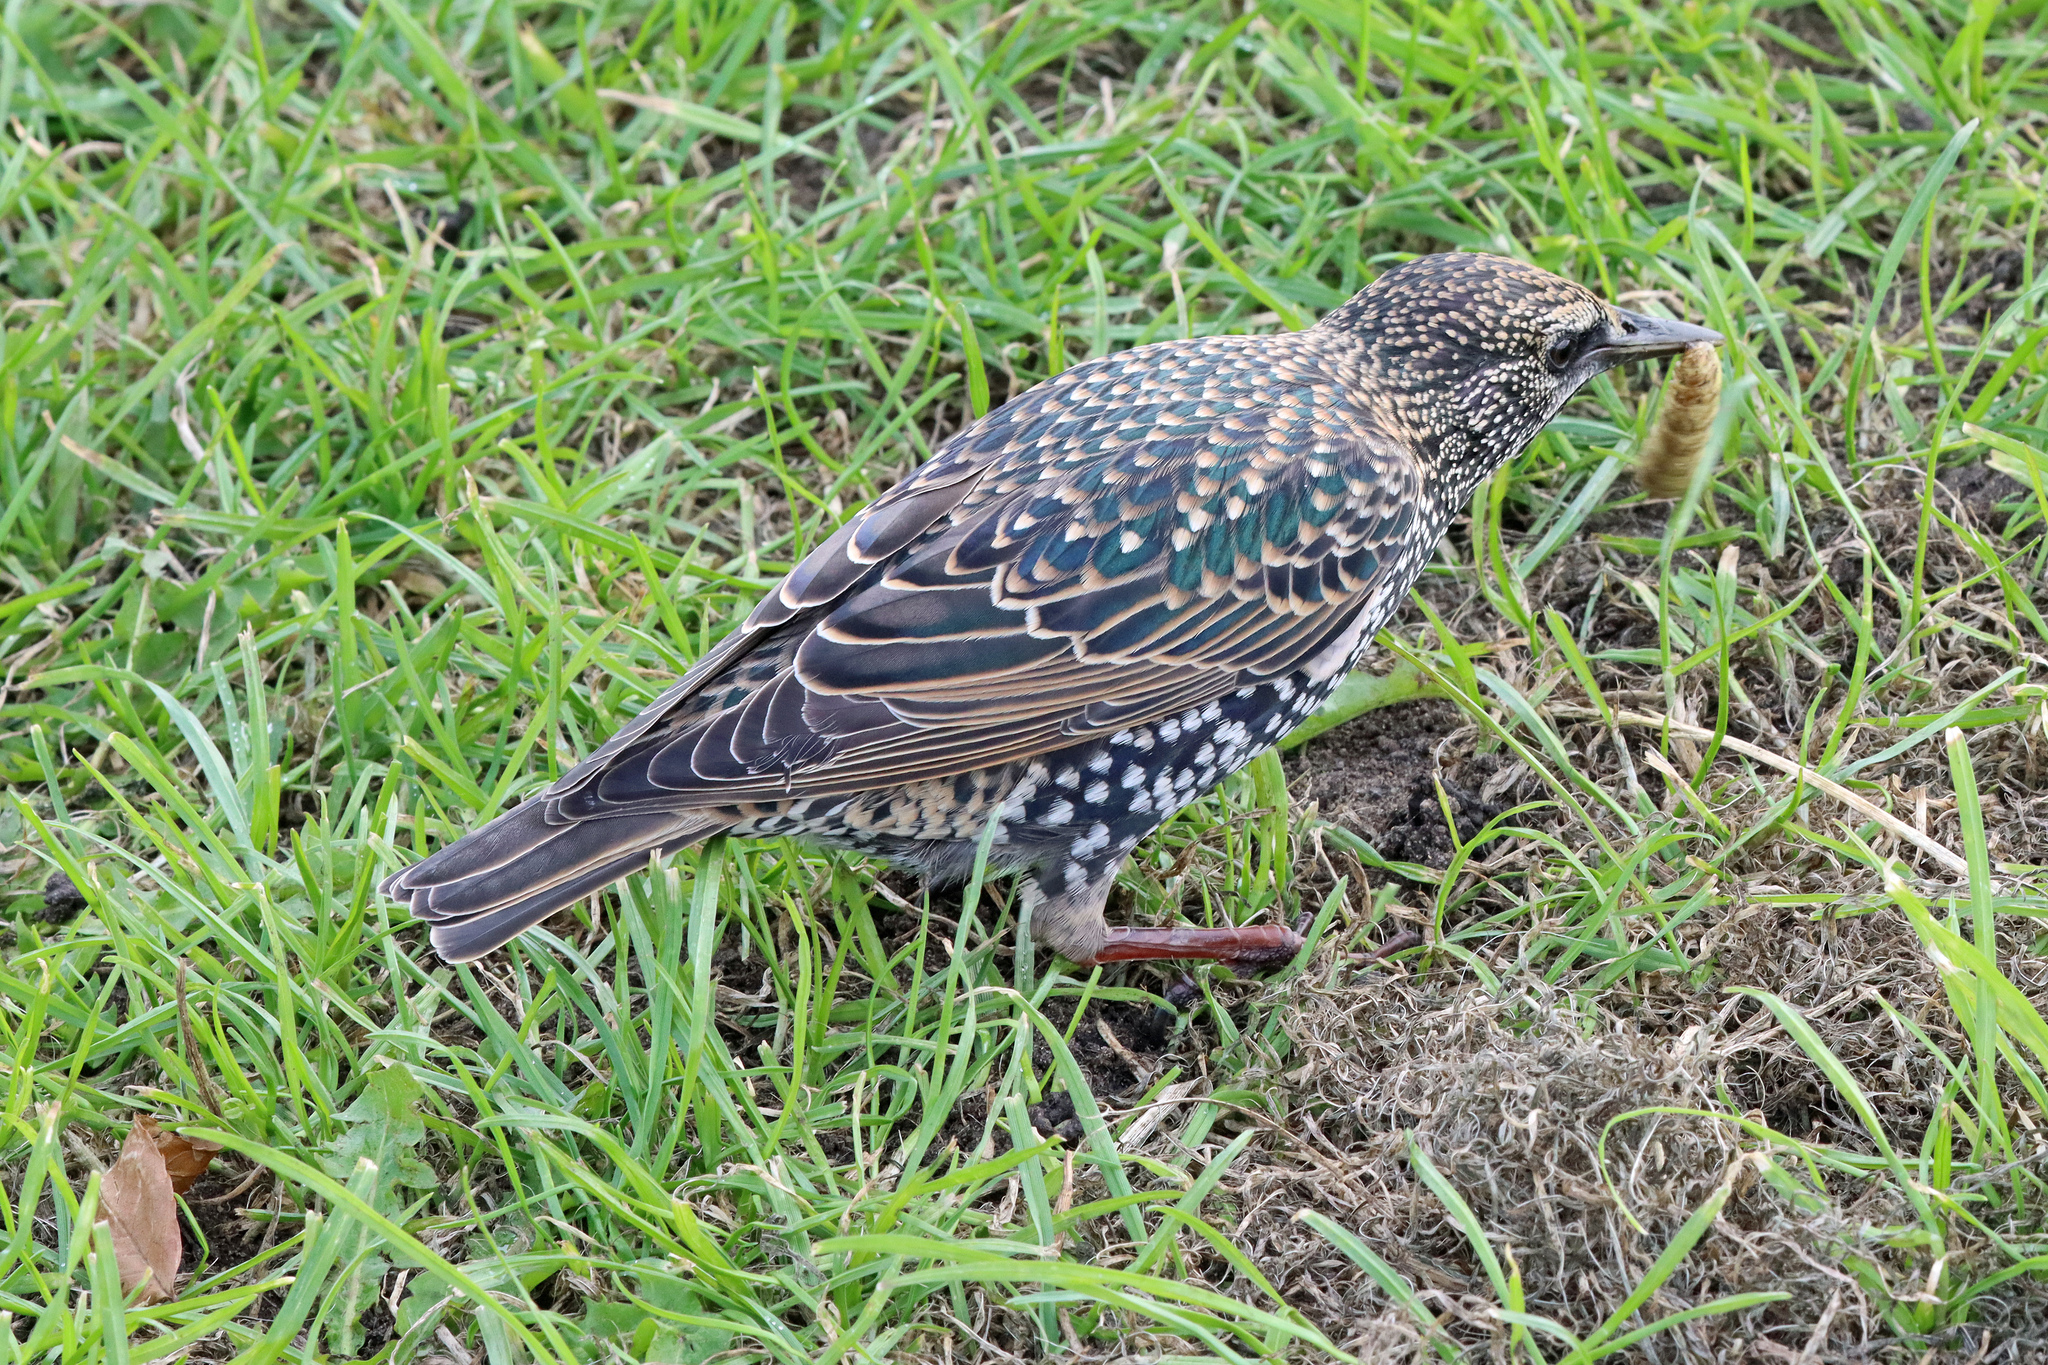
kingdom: Animalia
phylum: Chordata
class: Aves
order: Passeriformes
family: Sturnidae
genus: Sturnus
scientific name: Sturnus vulgaris
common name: Common starling
